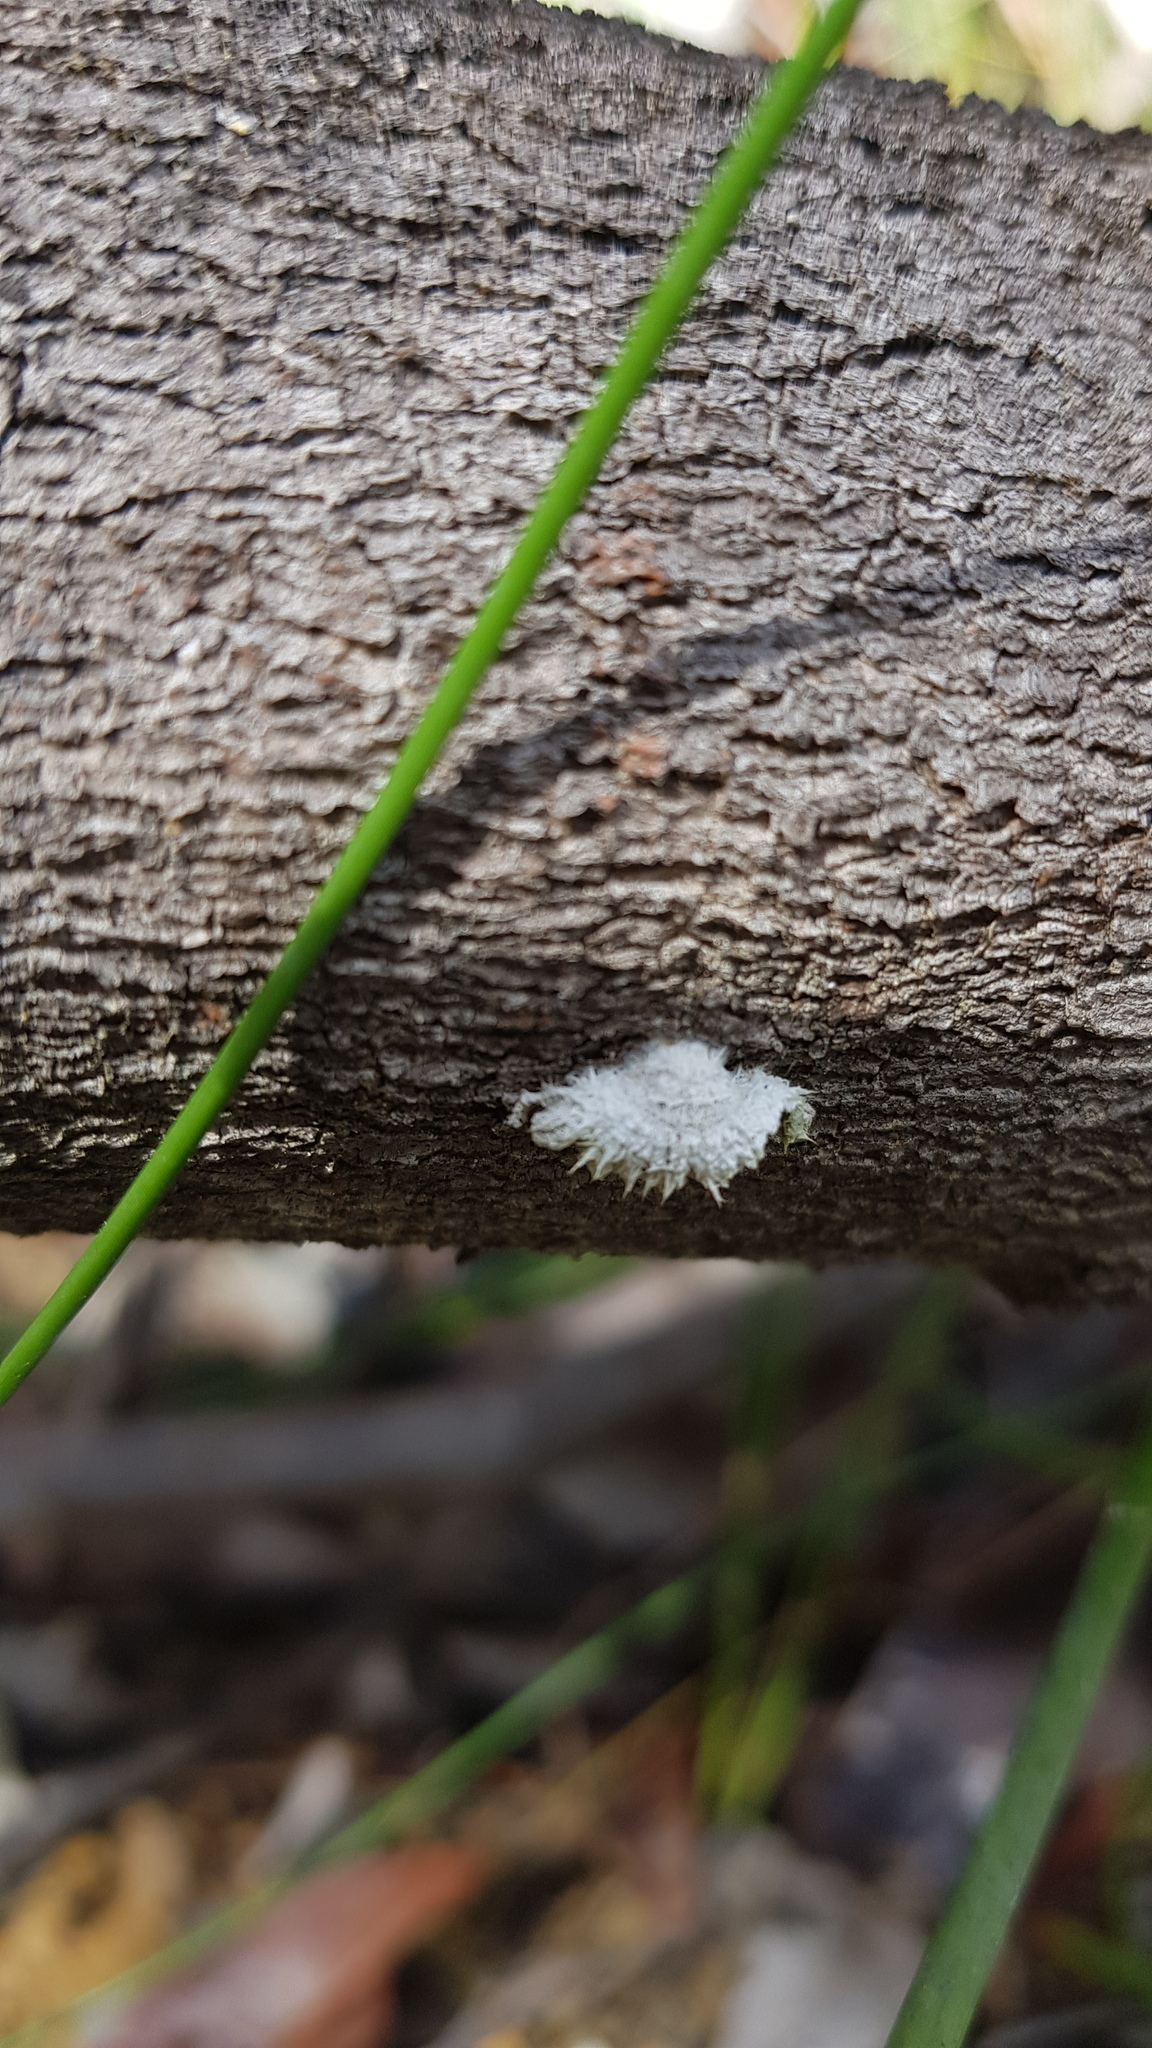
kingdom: Fungi
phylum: Basidiomycota
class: Agaricomycetes
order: Agaricales
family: Schizophyllaceae
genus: Schizophyllum
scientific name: Schizophyllum commune
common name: Common porecrust
